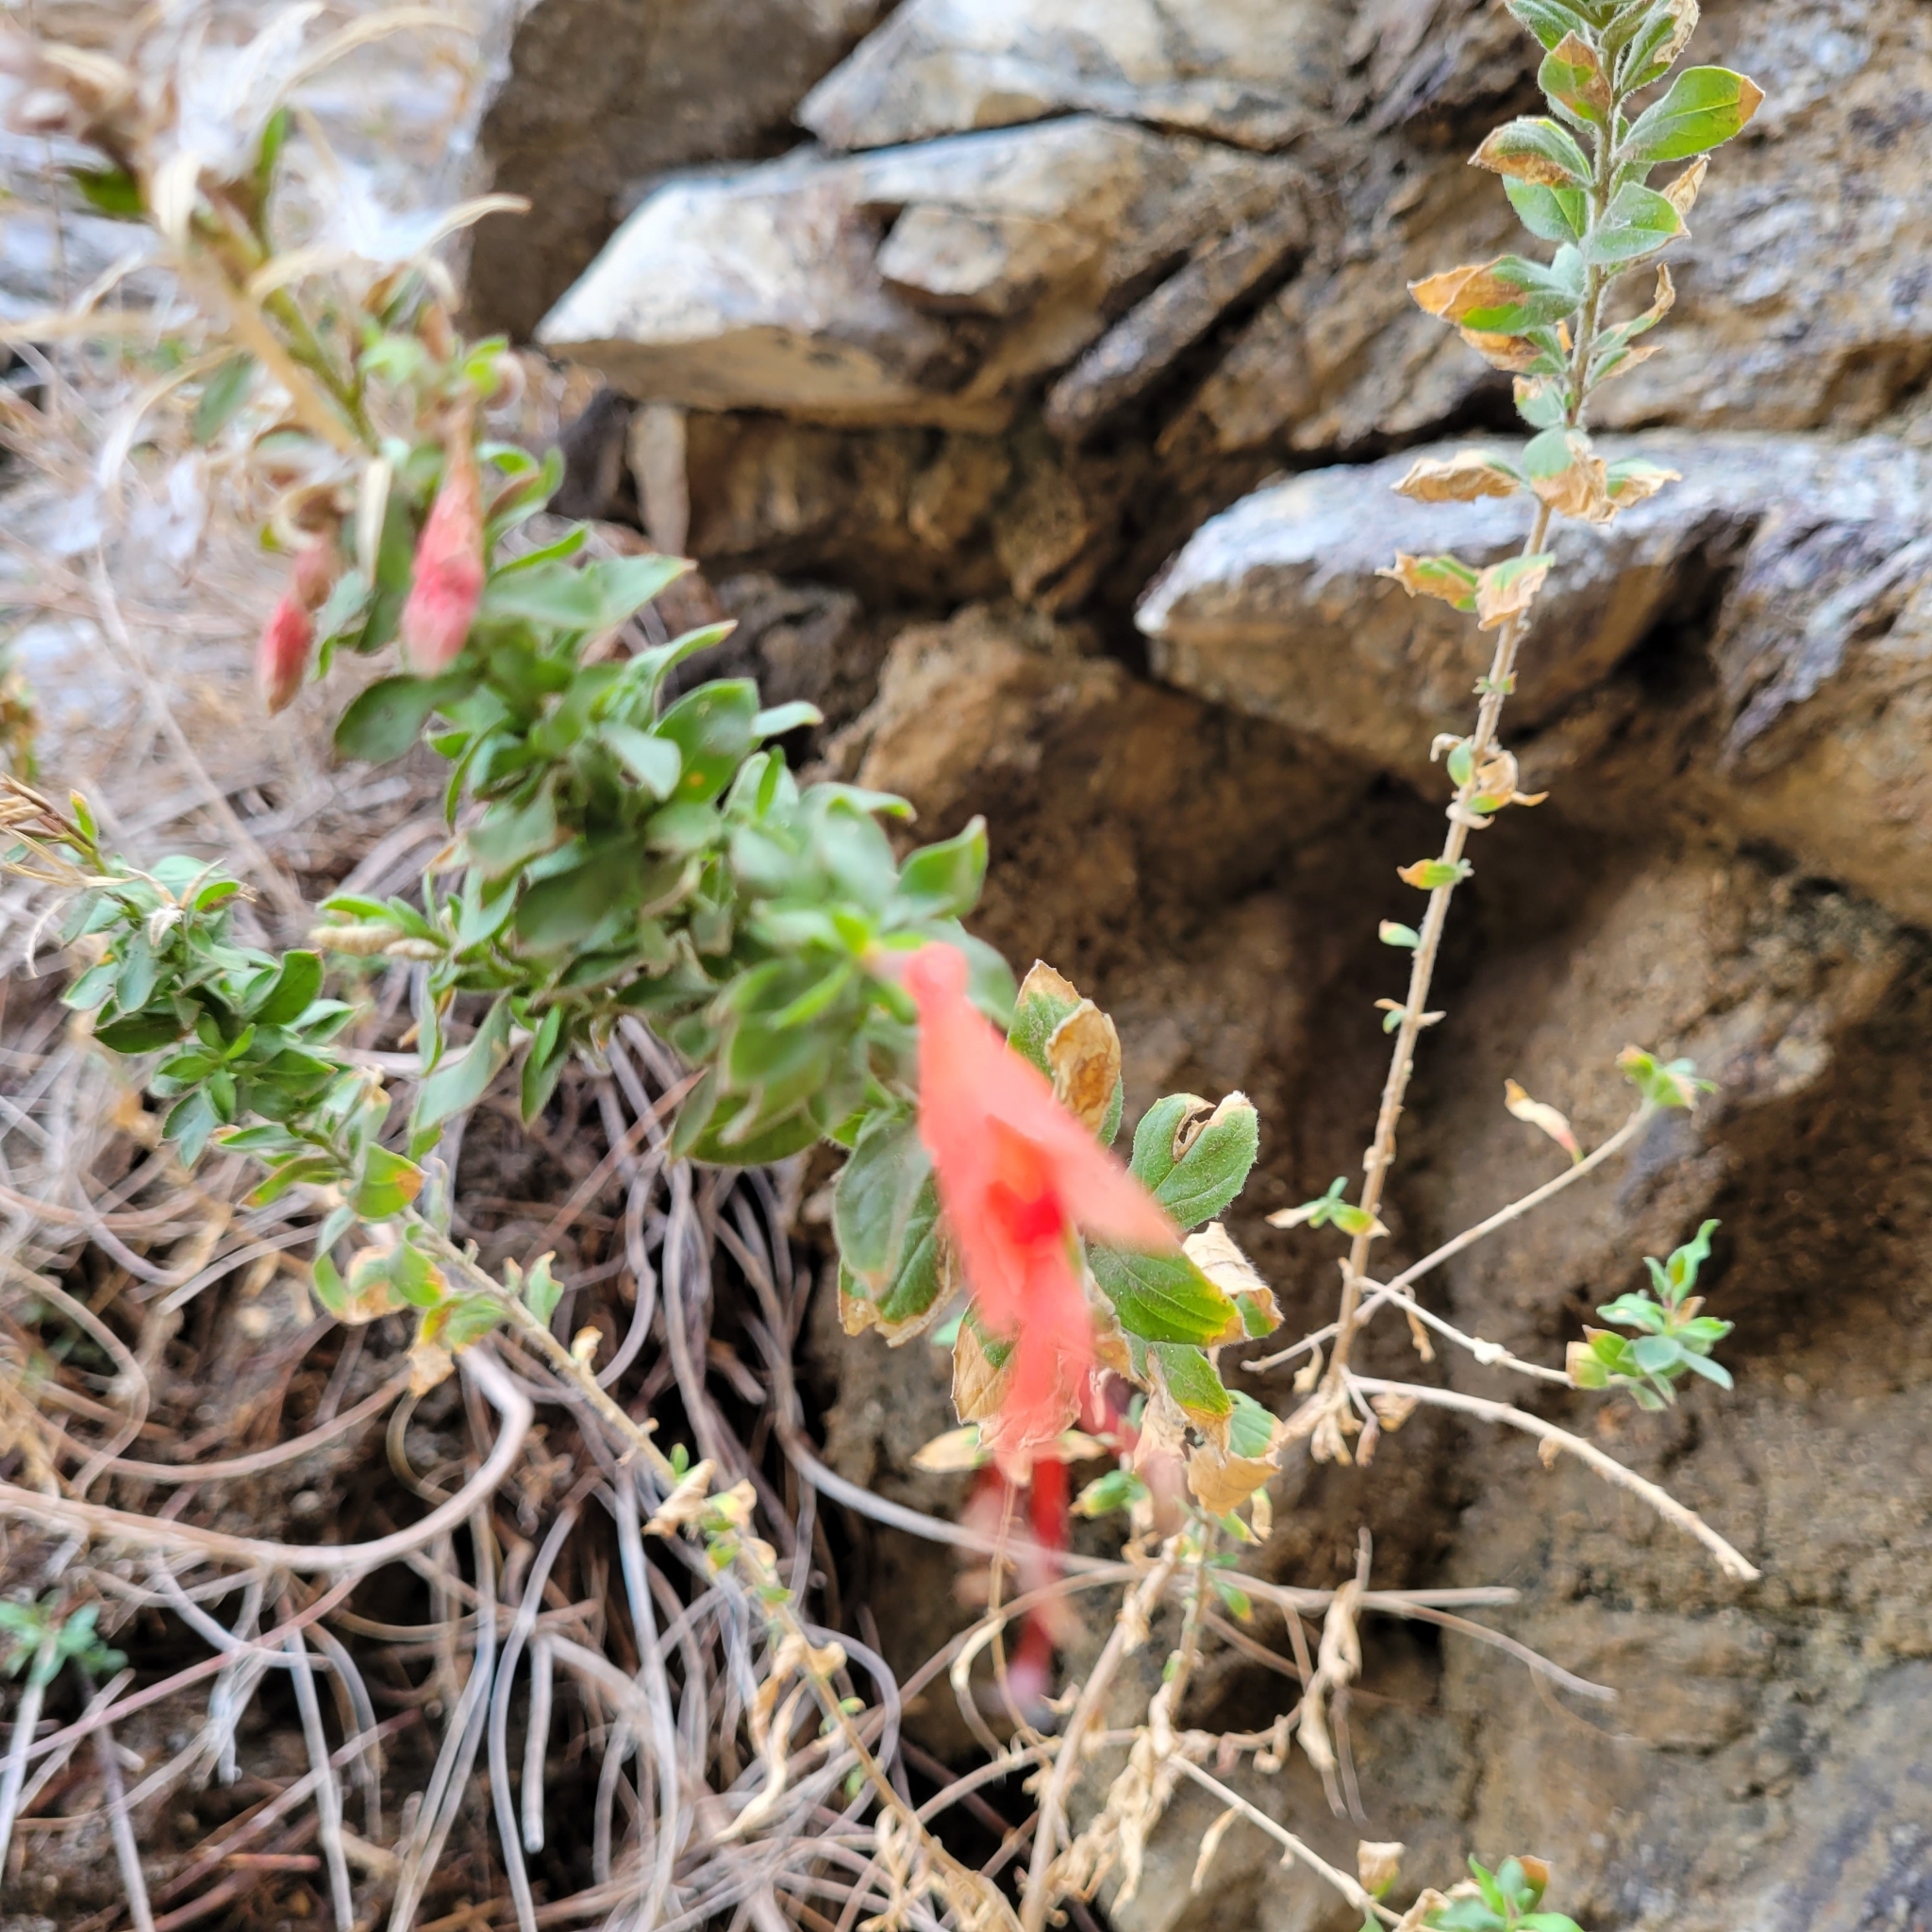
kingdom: Plantae
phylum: Tracheophyta
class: Magnoliopsida
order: Myrtales
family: Onagraceae
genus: Epilobium
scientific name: Epilobium canum
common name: California-fuchsia
